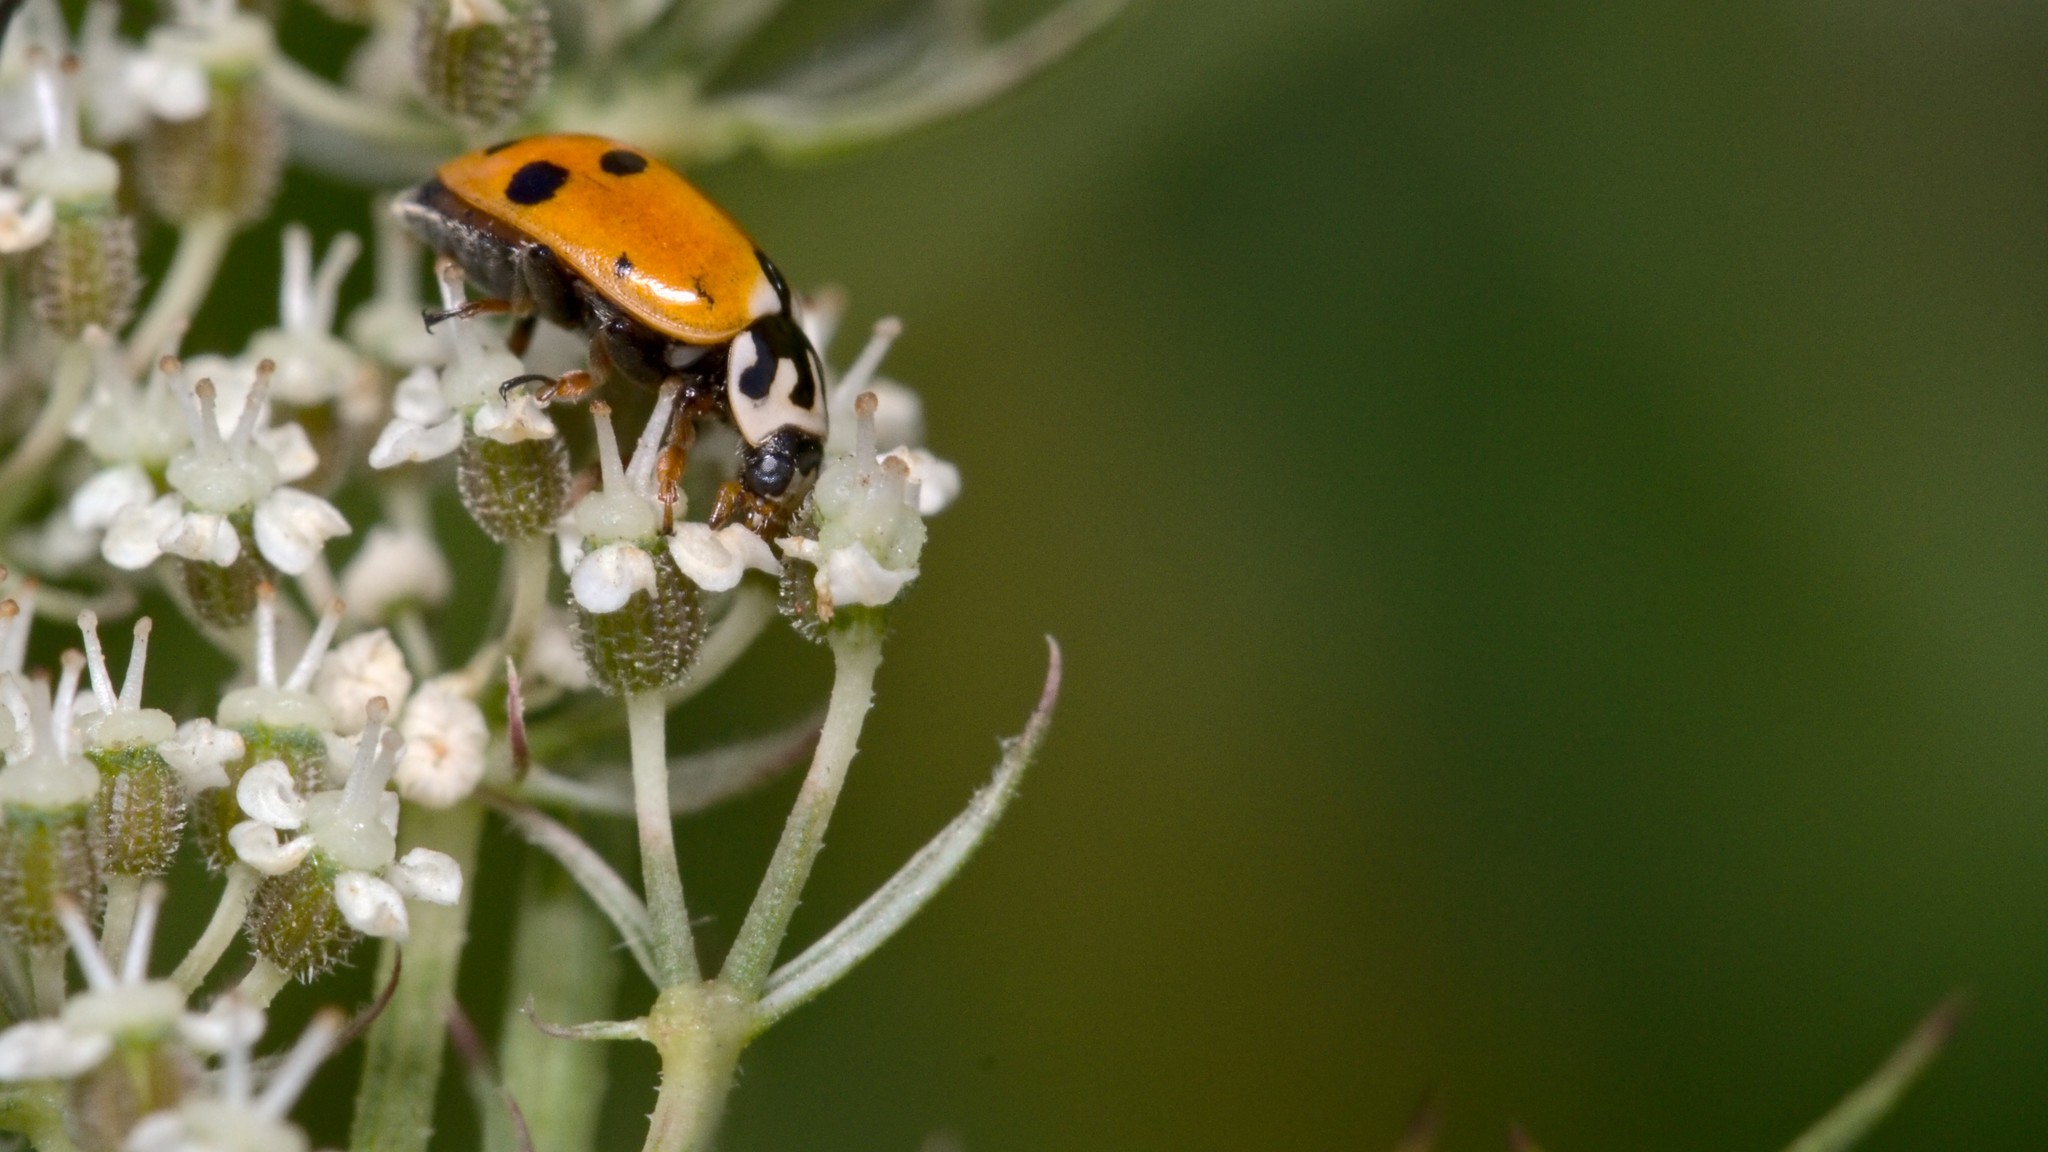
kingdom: Animalia
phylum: Arthropoda
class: Insecta
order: Coleoptera
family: Coccinellidae
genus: Hippodamia
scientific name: Hippodamia variegata
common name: Ladybird beetle
